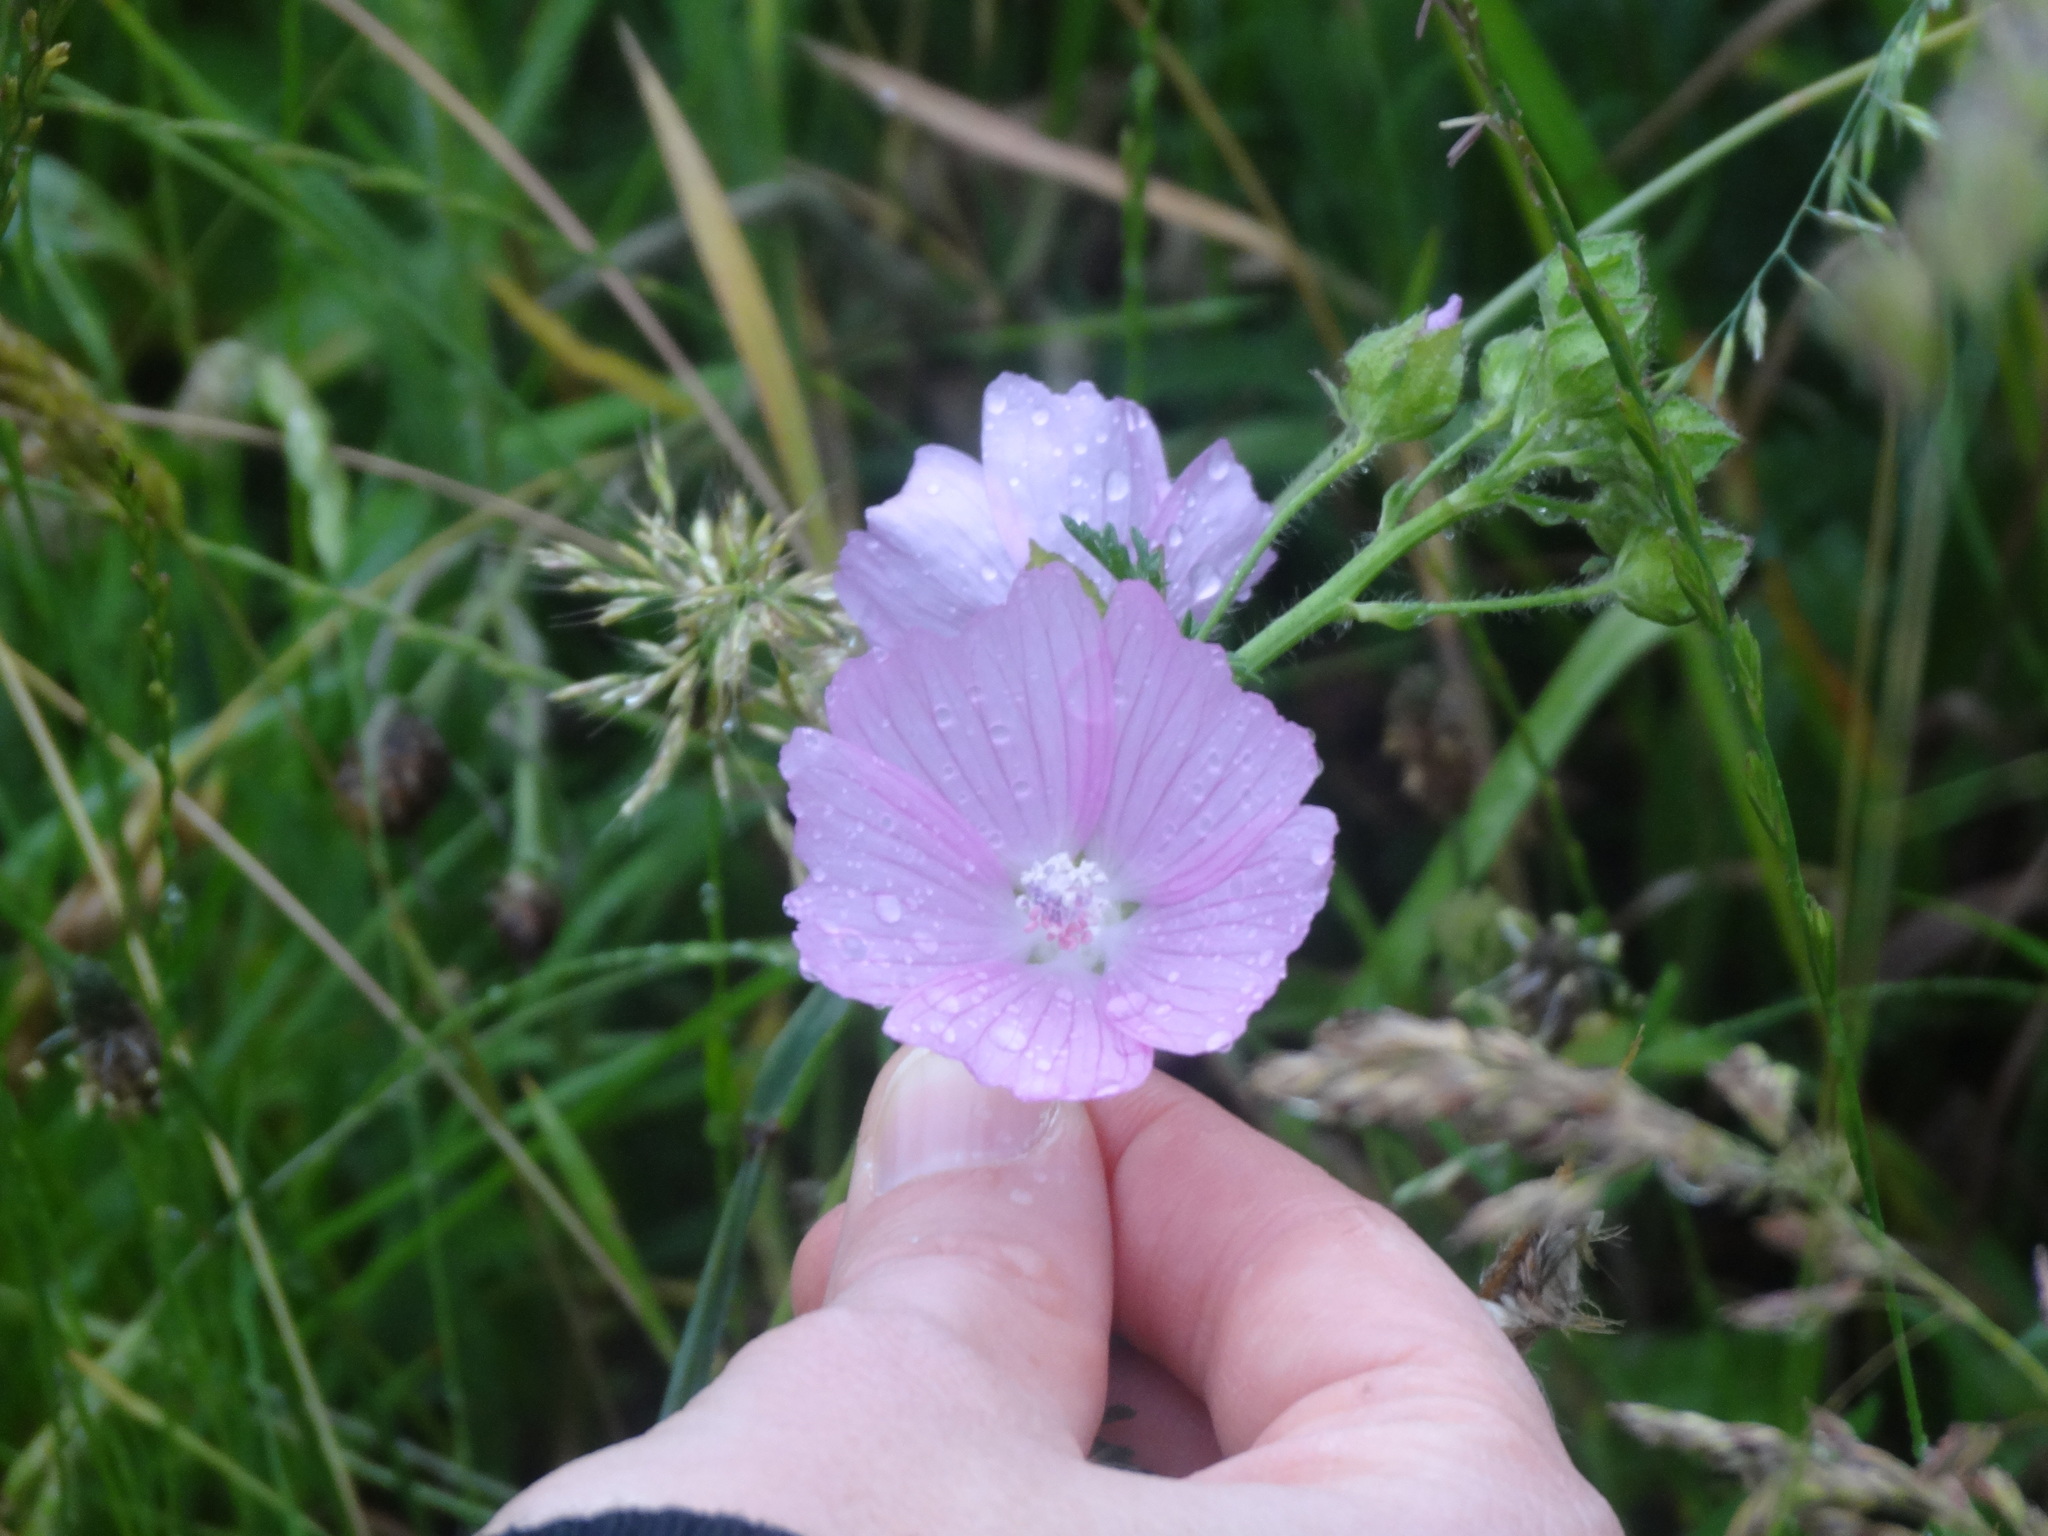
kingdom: Plantae
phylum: Tracheophyta
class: Magnoliopsida
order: Malvales
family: Malvaceae
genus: Malva
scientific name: Malva moschata
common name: Musk mallow
